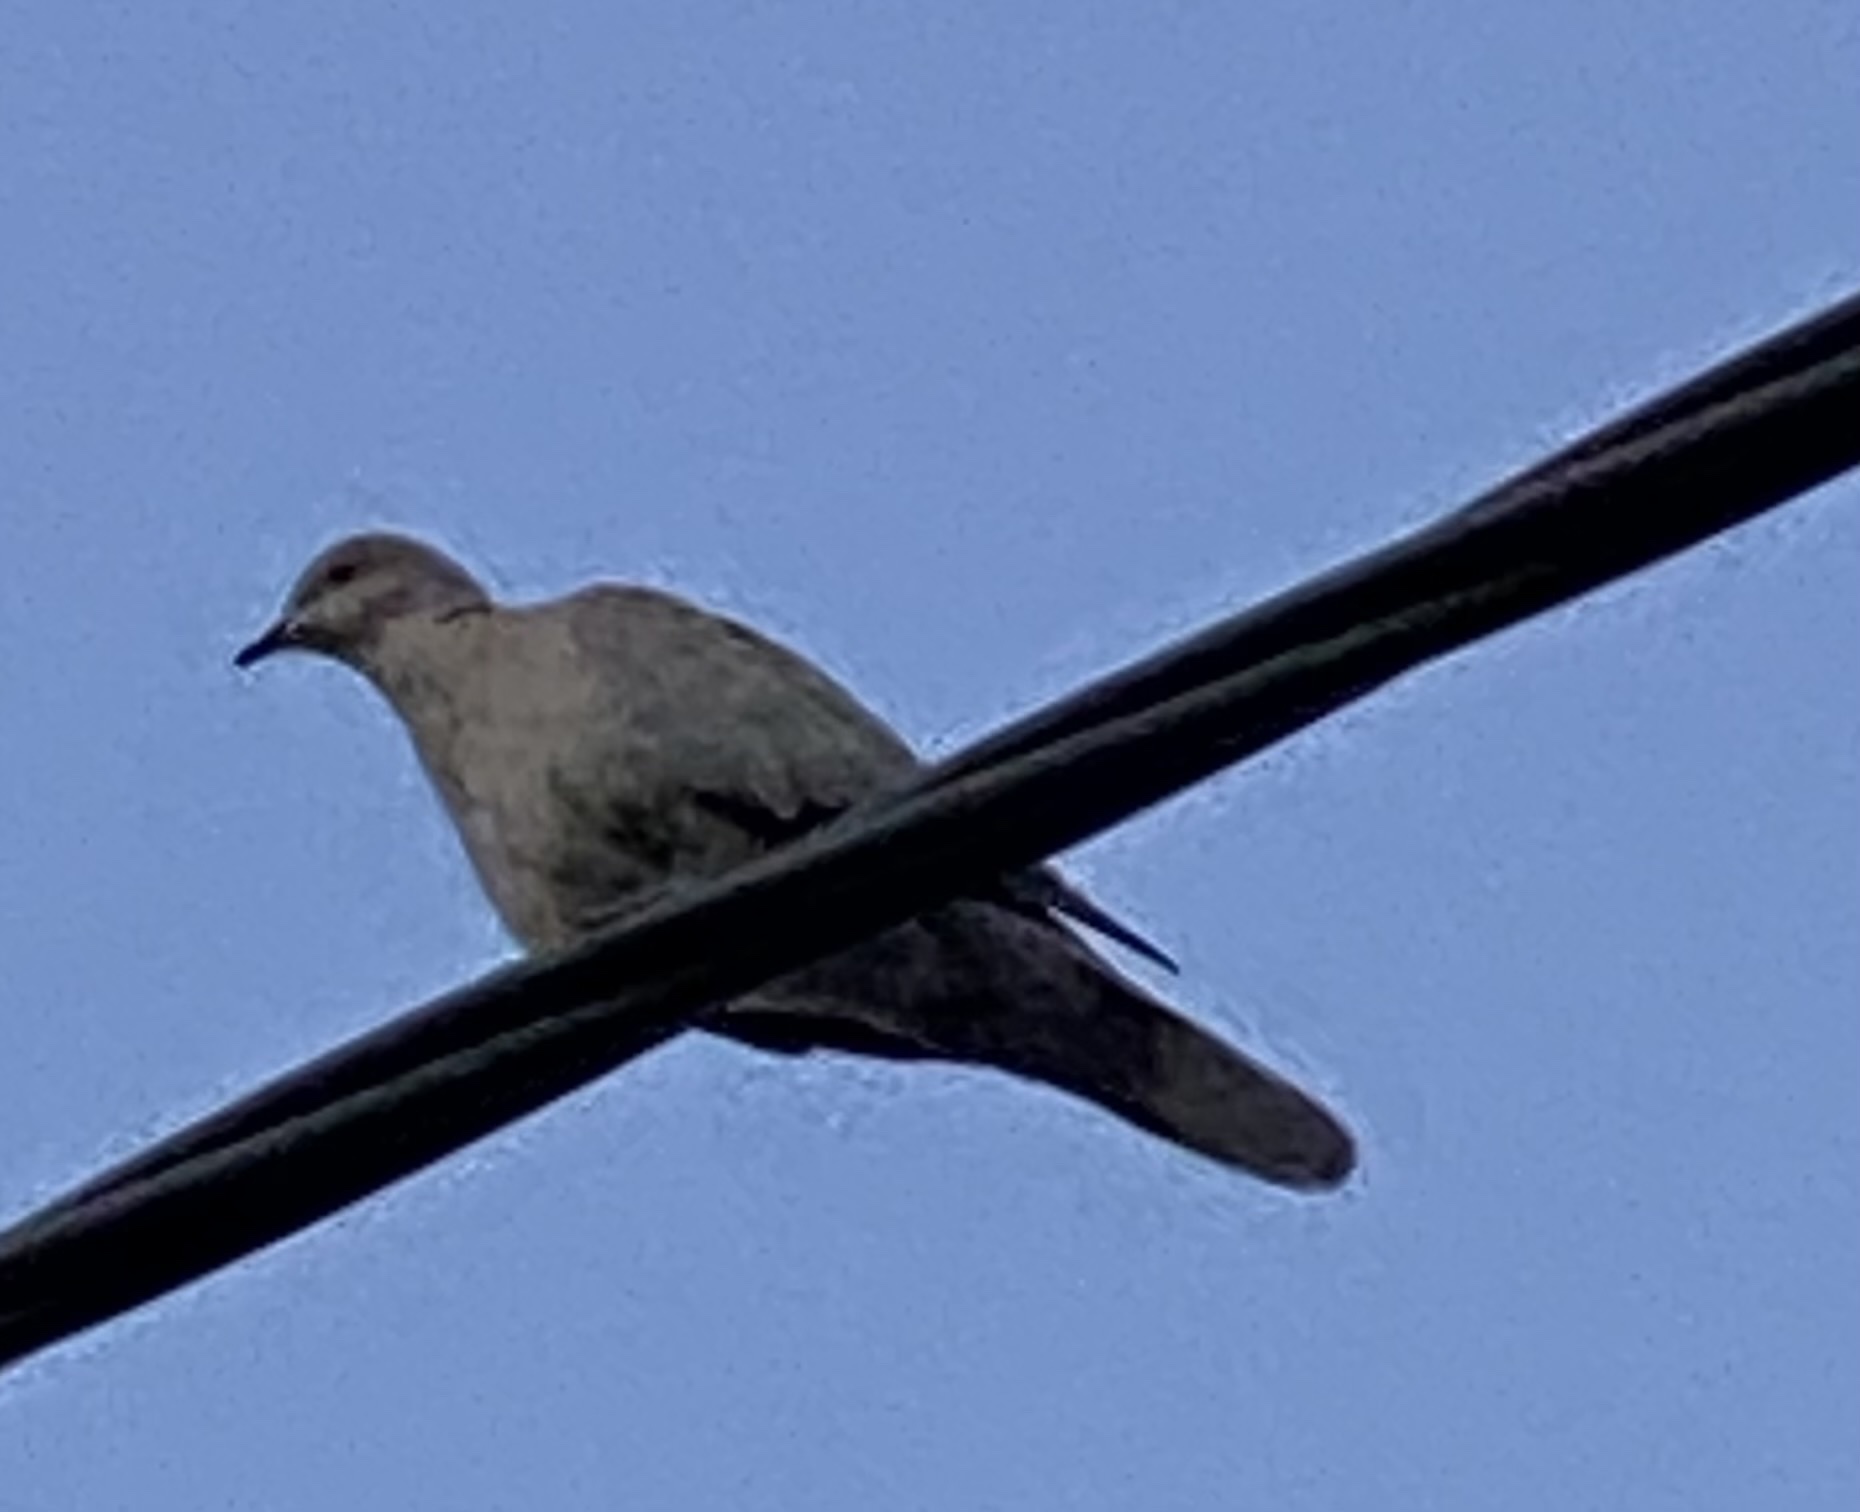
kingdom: Animalia
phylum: Chordata
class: Aves
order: Columbiformes
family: Columbidae
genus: Streptopelia
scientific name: Streptopelia decaocto
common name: Eurasian collared dove
